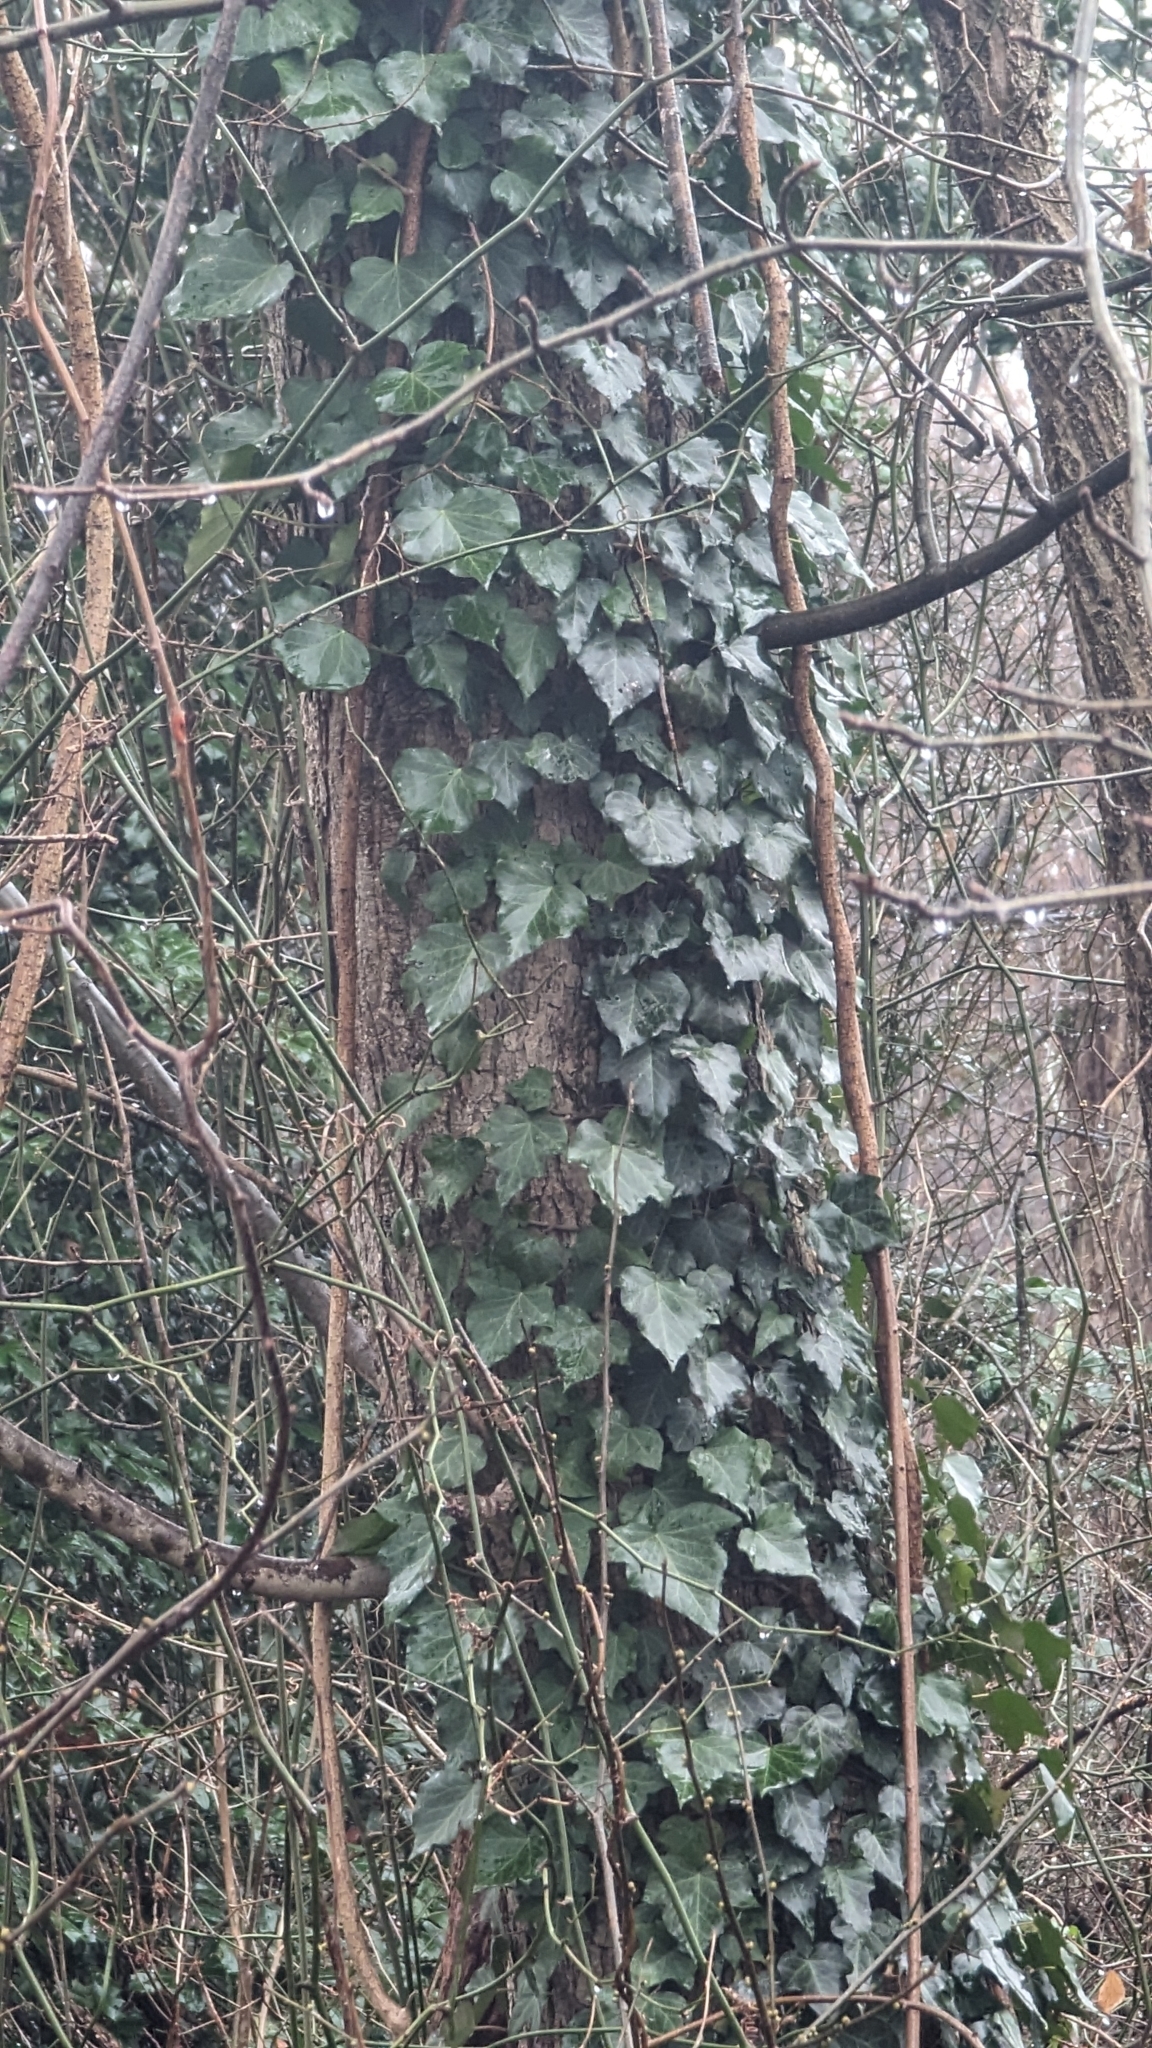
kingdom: Plantae
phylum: Tracheophyta
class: Magnoliopsida
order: Apiales
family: Araliaceae
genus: Hedera
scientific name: Hedera helix
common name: Ivy
